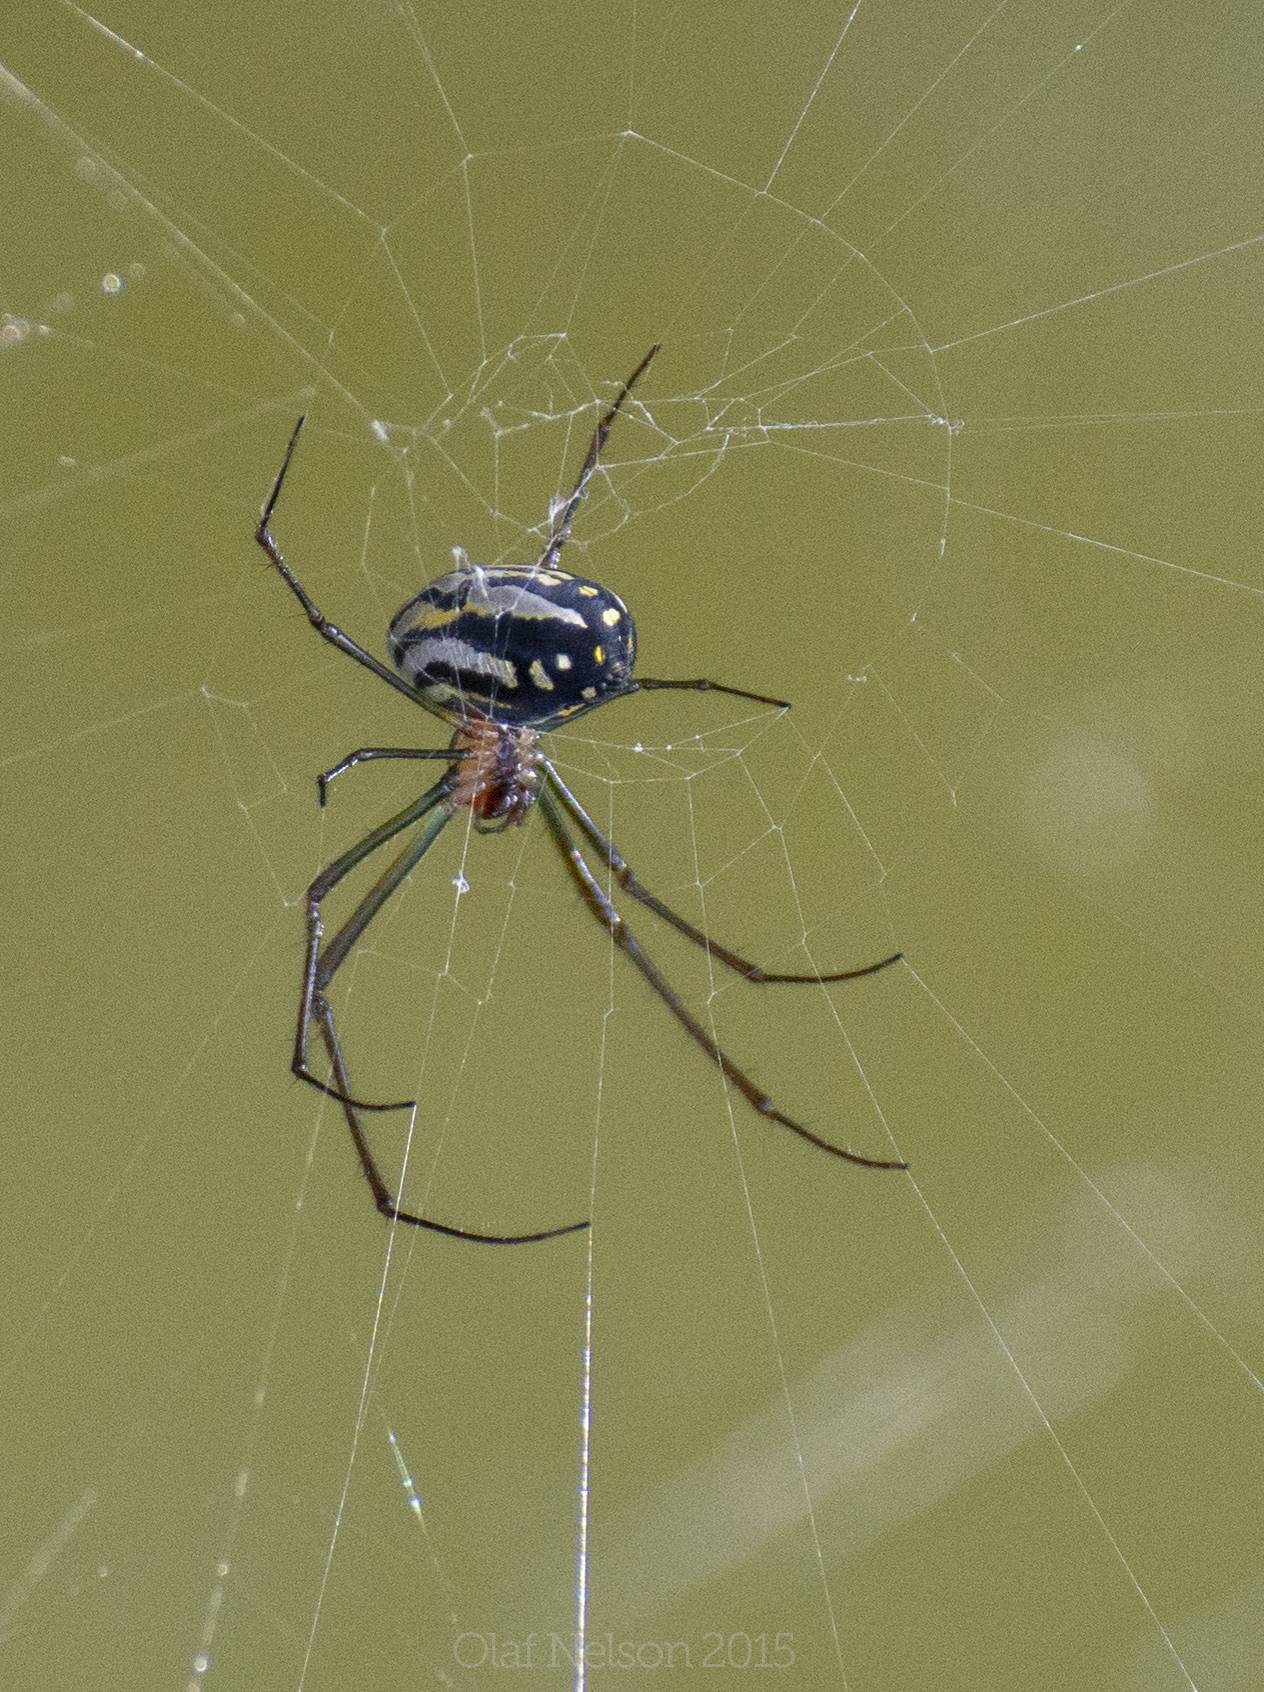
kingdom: Animalia
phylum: Arthropoda
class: Arachnida
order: Araneae
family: Tetragnathidae
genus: Leucauge
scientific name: Leucauge argyra
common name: Longjawed orb weavers
